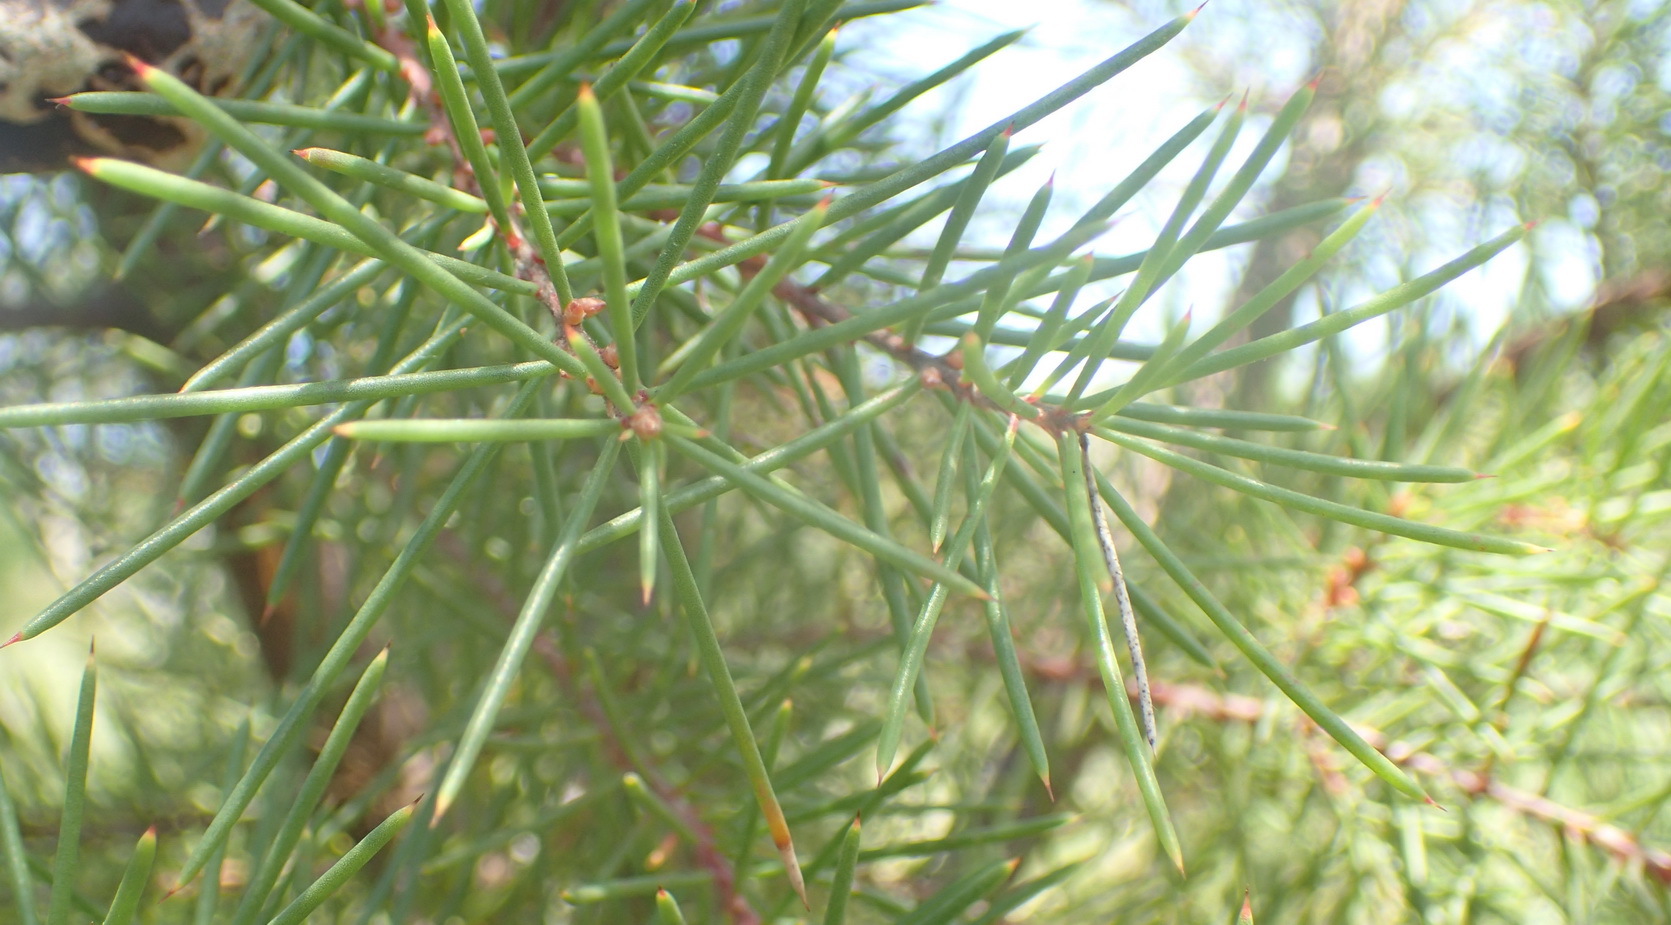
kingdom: Plantae
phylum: Tracheophyta
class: Magnoliopsida
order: Proteales
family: Proteaceae
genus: Hakea
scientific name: Hakea sericea
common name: Needle bush
